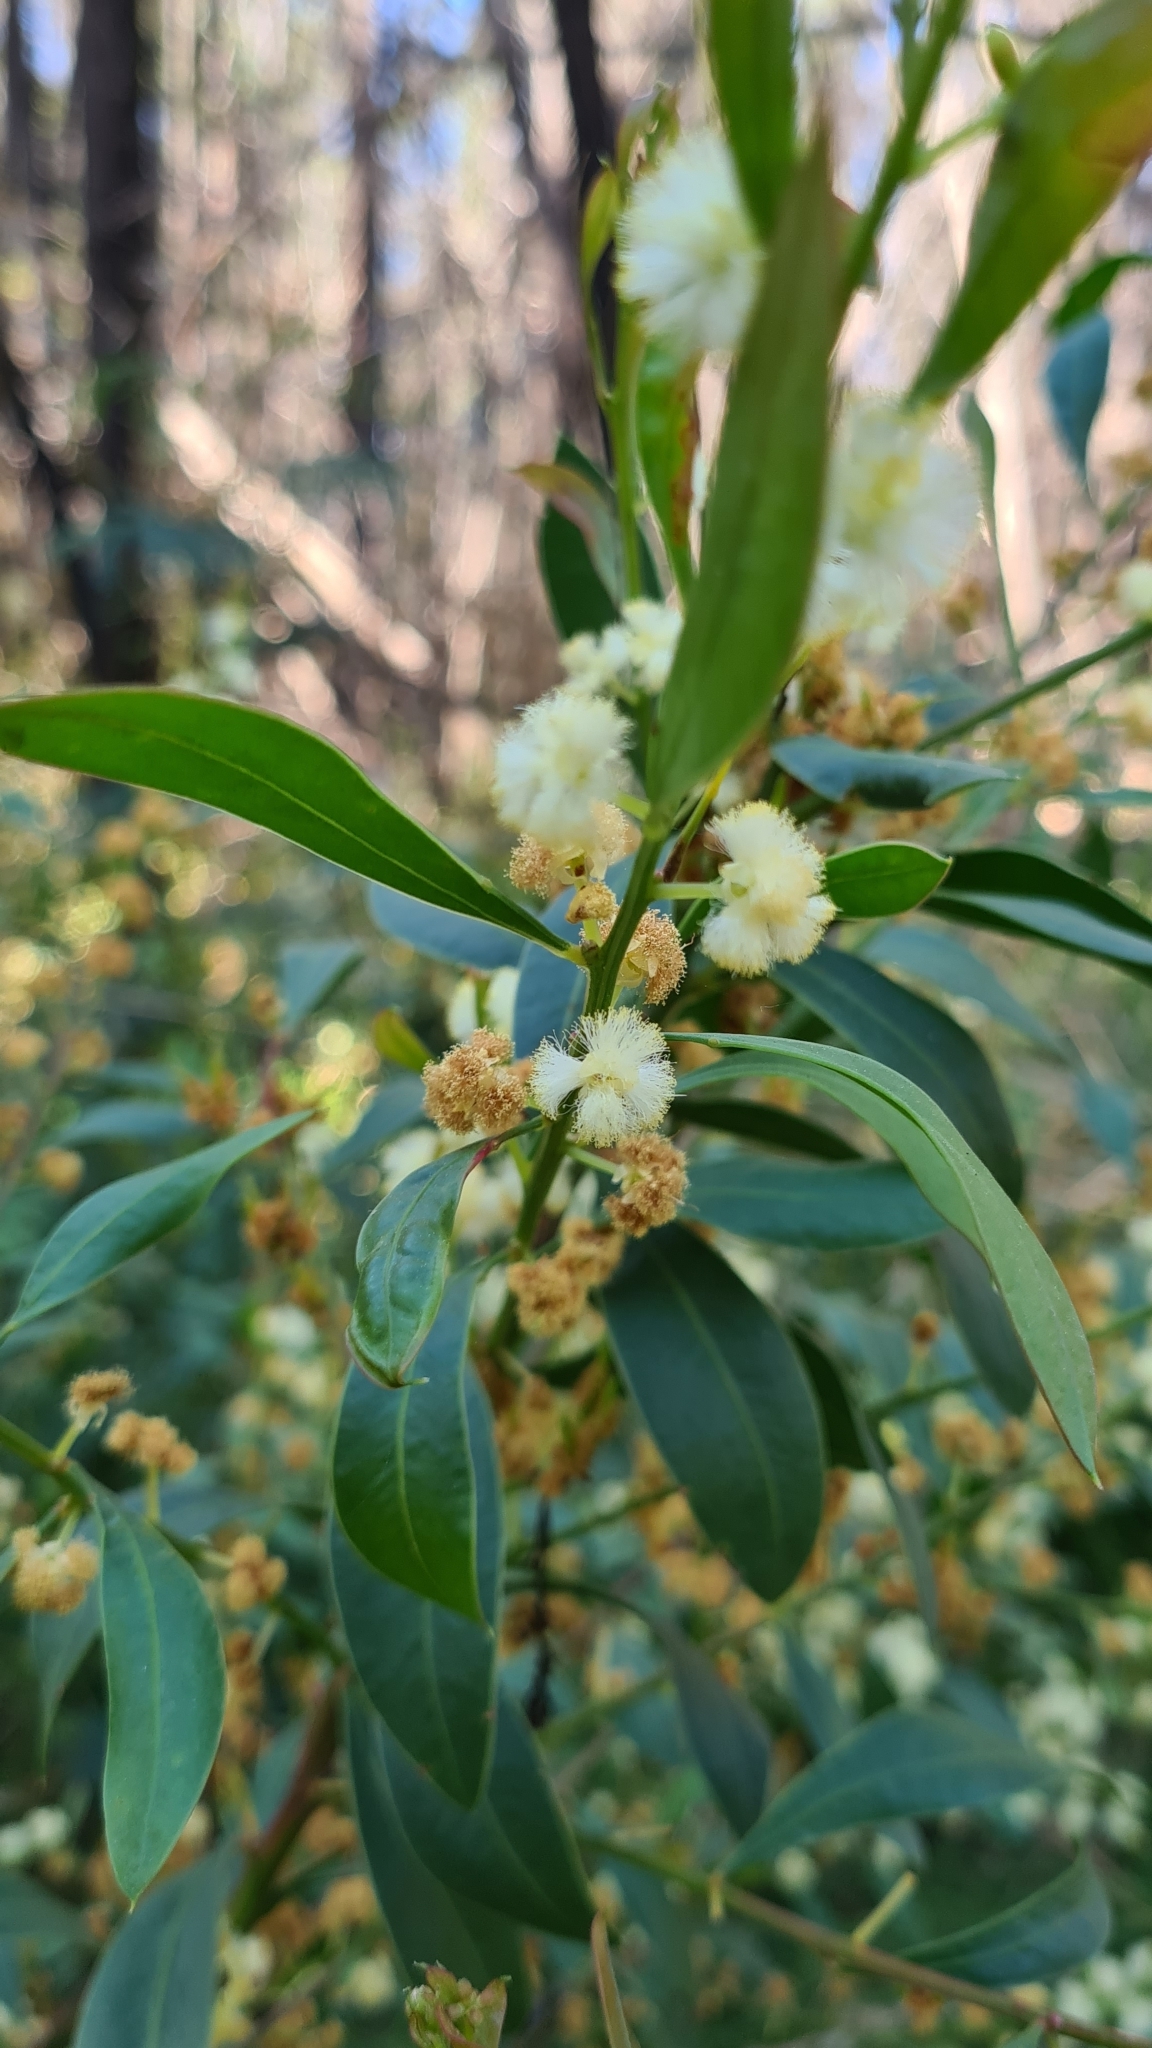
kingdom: Plantae
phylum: Tracheophyta
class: Magnoliopsida
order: Fabales
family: Fabaceae
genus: Acacia
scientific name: Acacia myrtifolia
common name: Myrtle wattle
